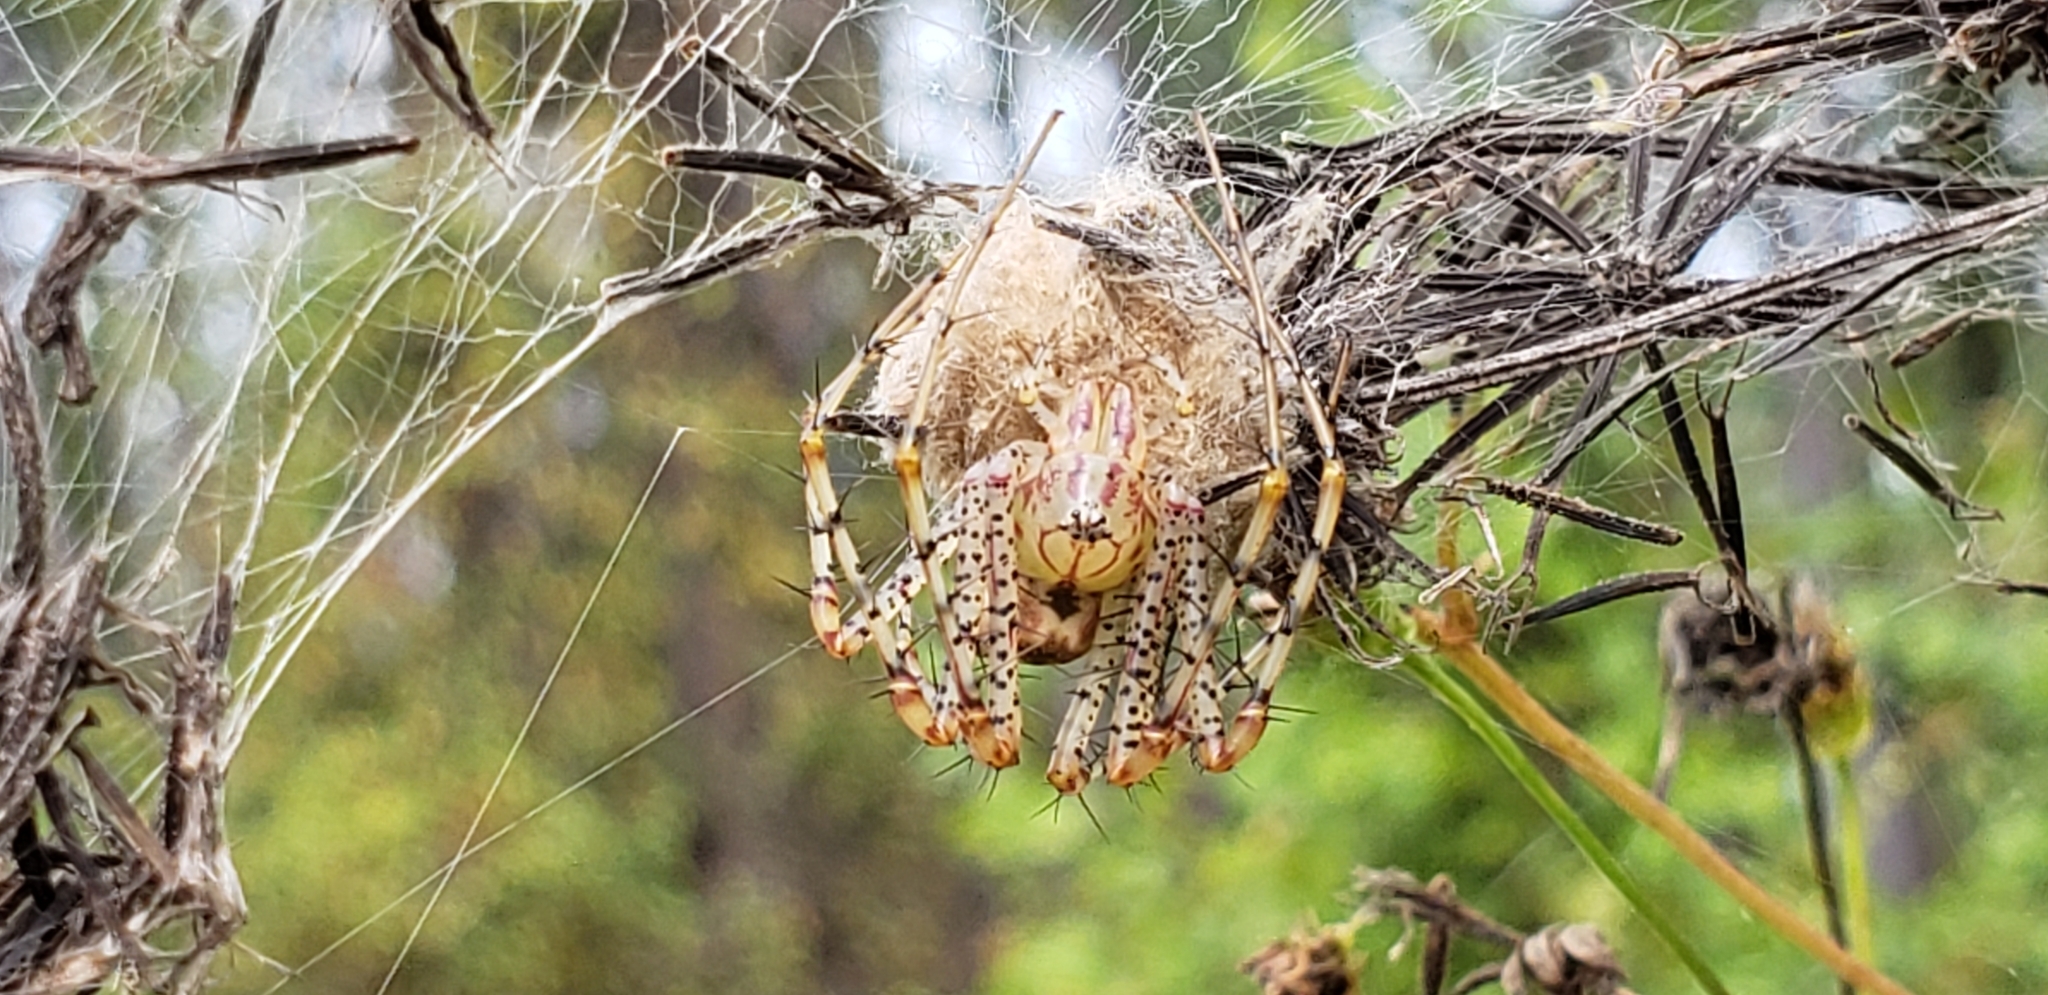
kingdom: Animalia
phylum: Arthropoda
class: Arachnida
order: Araneae
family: Oxyopidae
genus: Peucetia
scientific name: Peucetia viridans
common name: Lynx spiders
